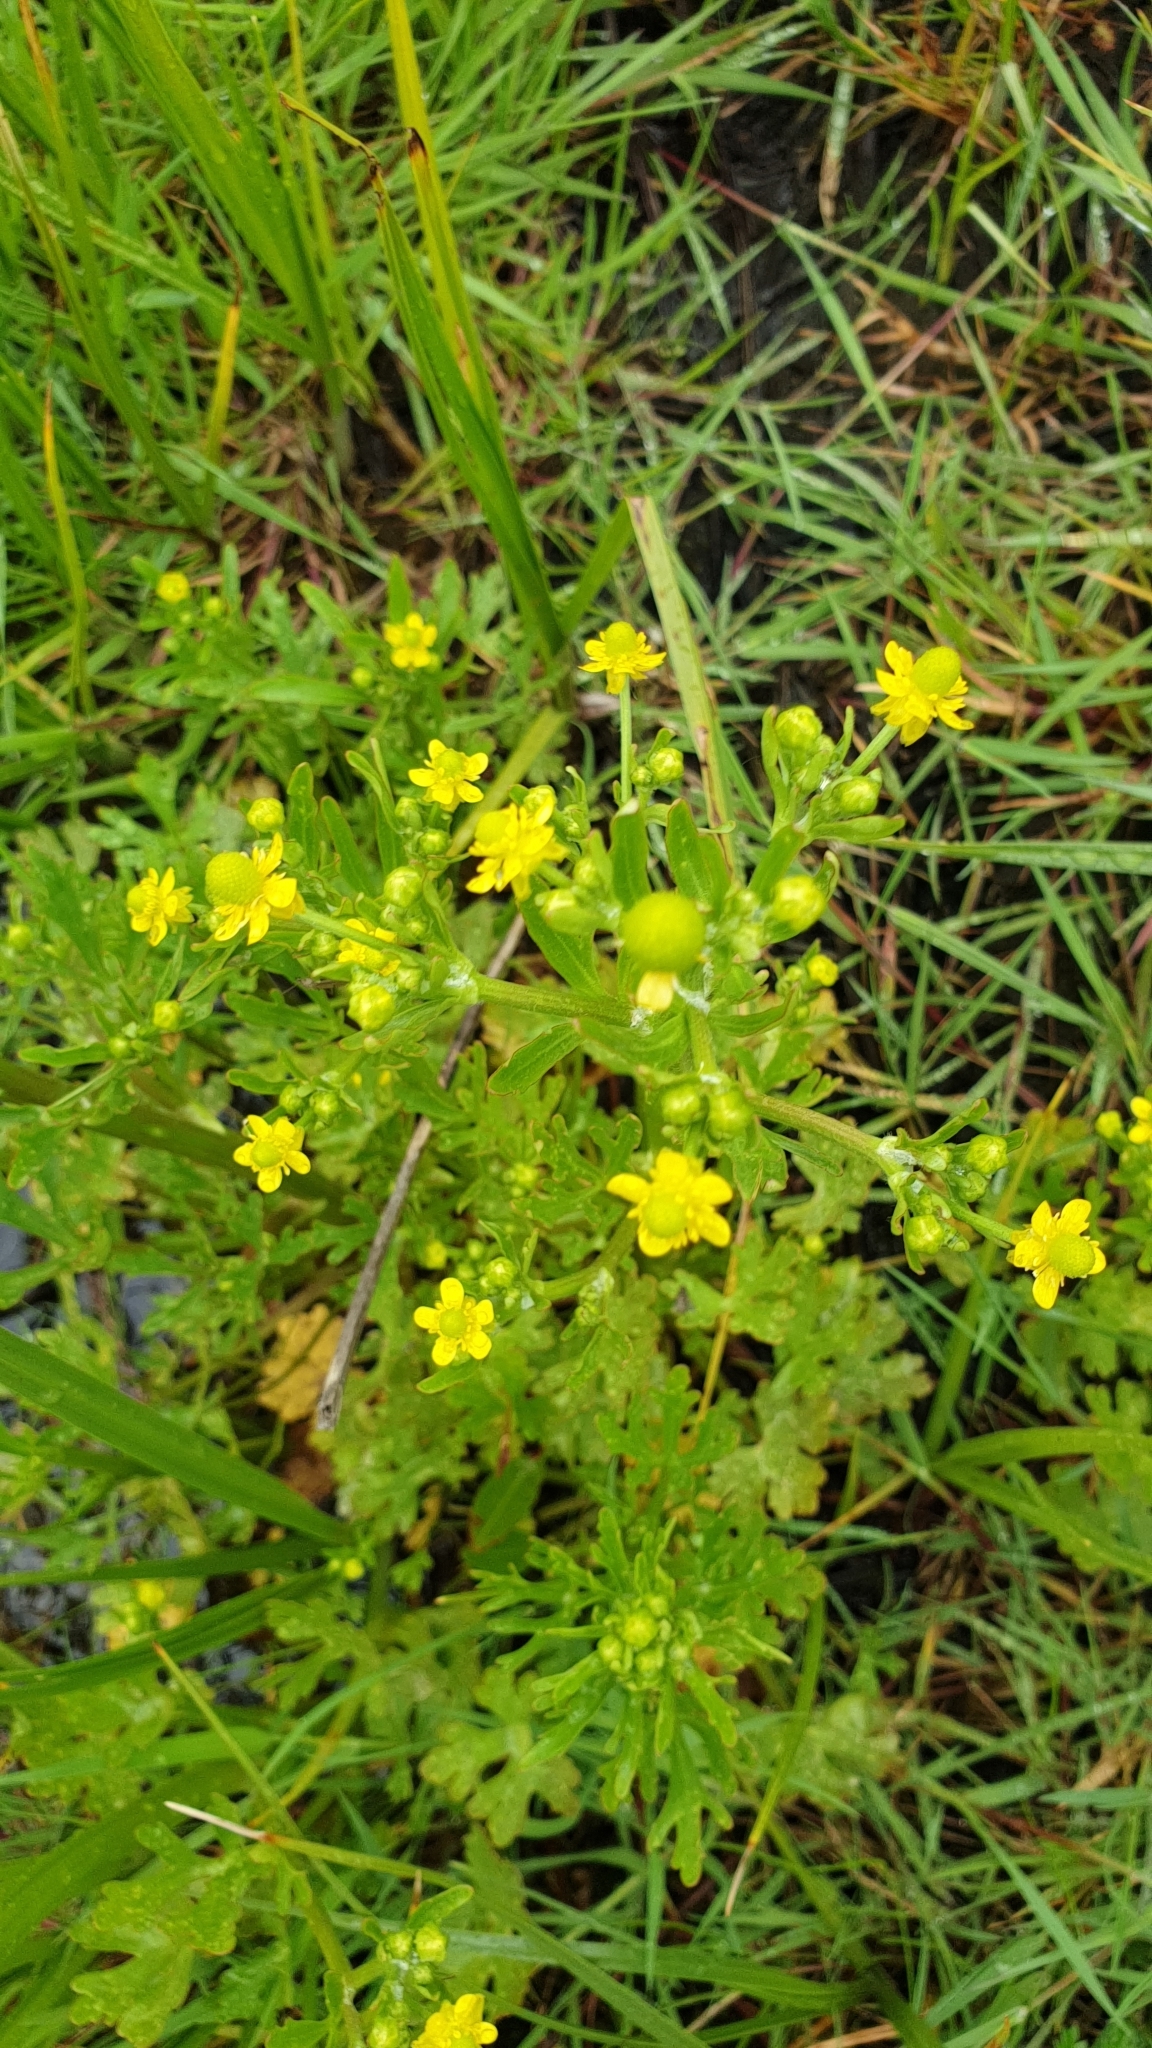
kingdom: Plantae
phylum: Tracheophyta
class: Magnoliopsida
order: Ranunculales
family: Ranunculaceae
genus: Ranunculus
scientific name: Ranunculus sceleratus
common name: Celery-leaved buttercup
